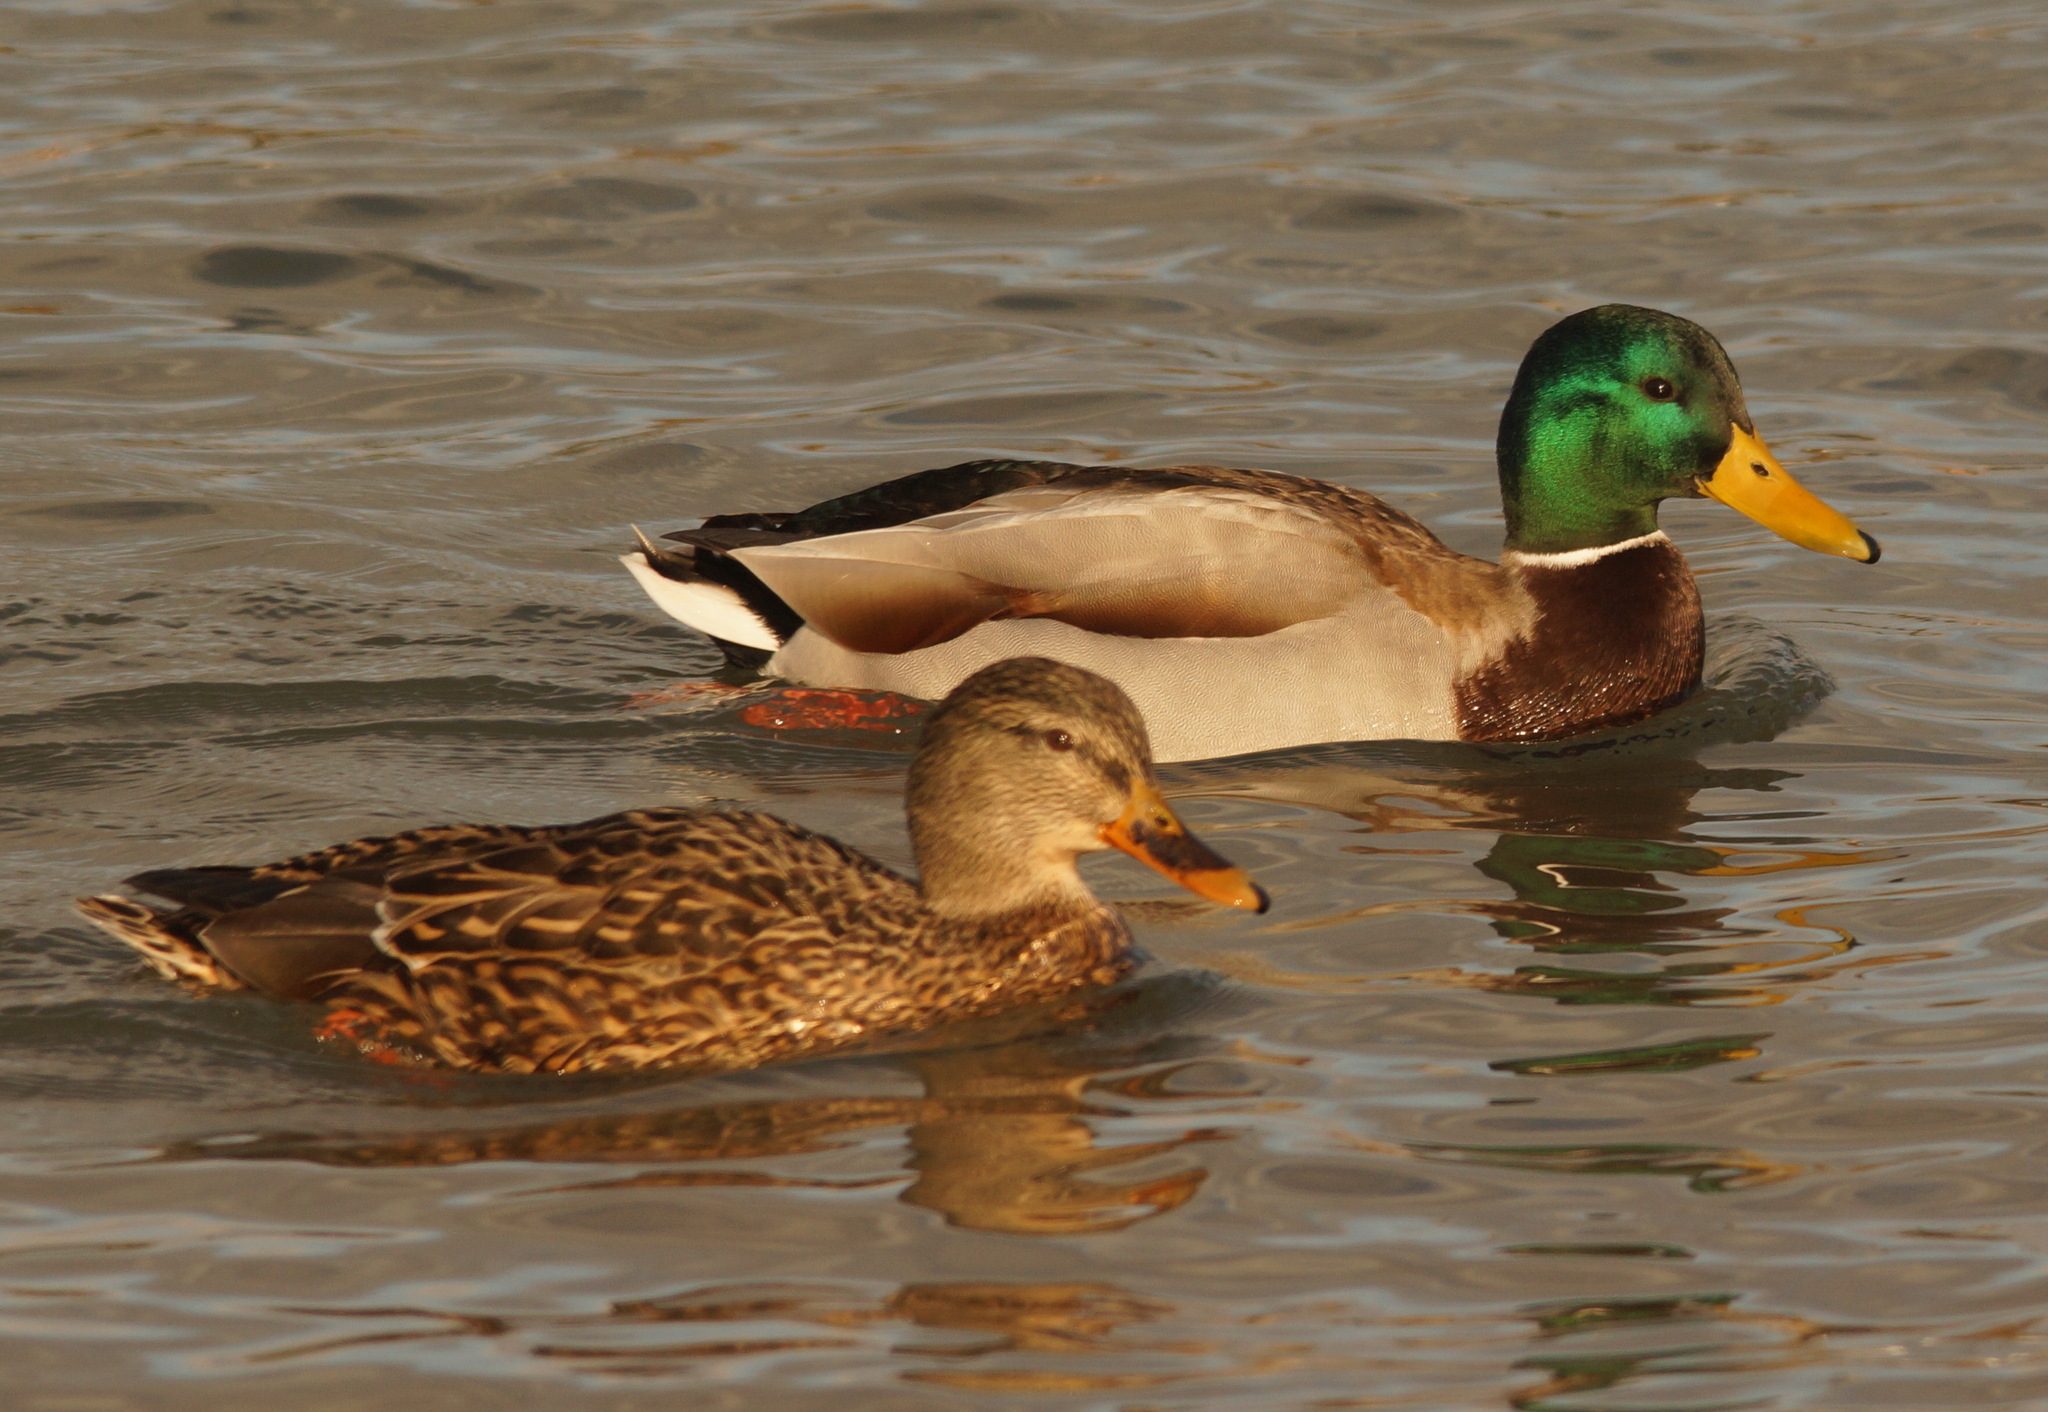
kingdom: Animalia
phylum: Chordata
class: Aves
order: Anseriformes
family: Anatidae
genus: Anas
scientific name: Anas platyrhynchos
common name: Mallard
